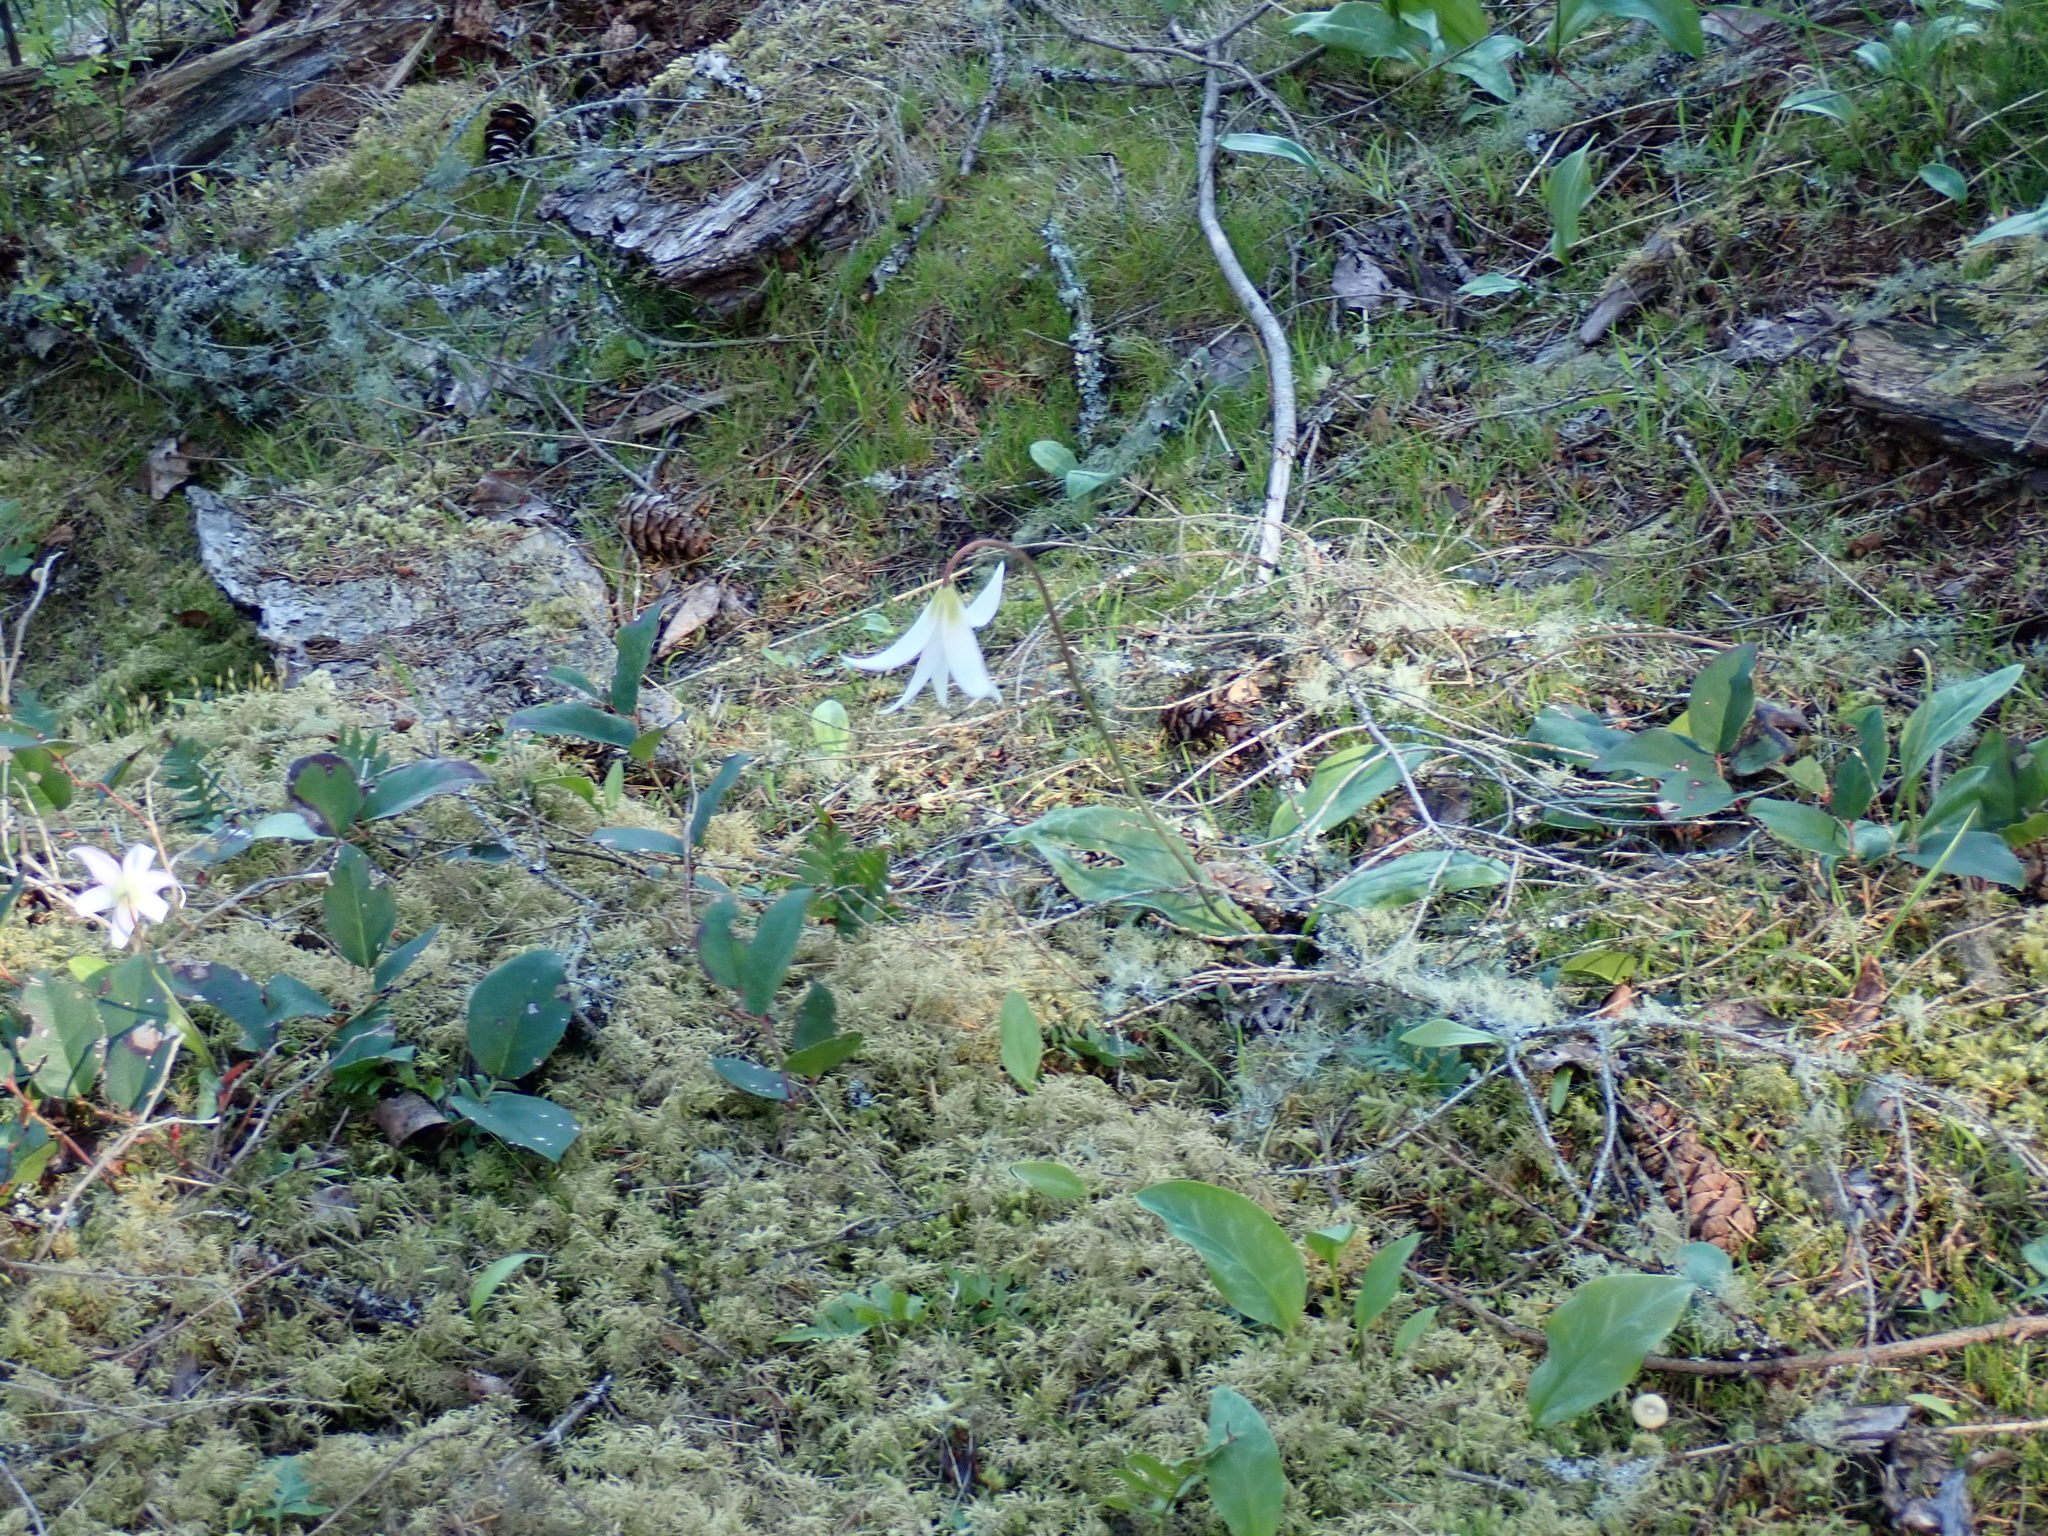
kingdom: Plantae
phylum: Tracheophyta
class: Liliopsida
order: Liliales
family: Liliaceae
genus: Erythronium
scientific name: Erythronium oregonum
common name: Giant adder's-tongue
